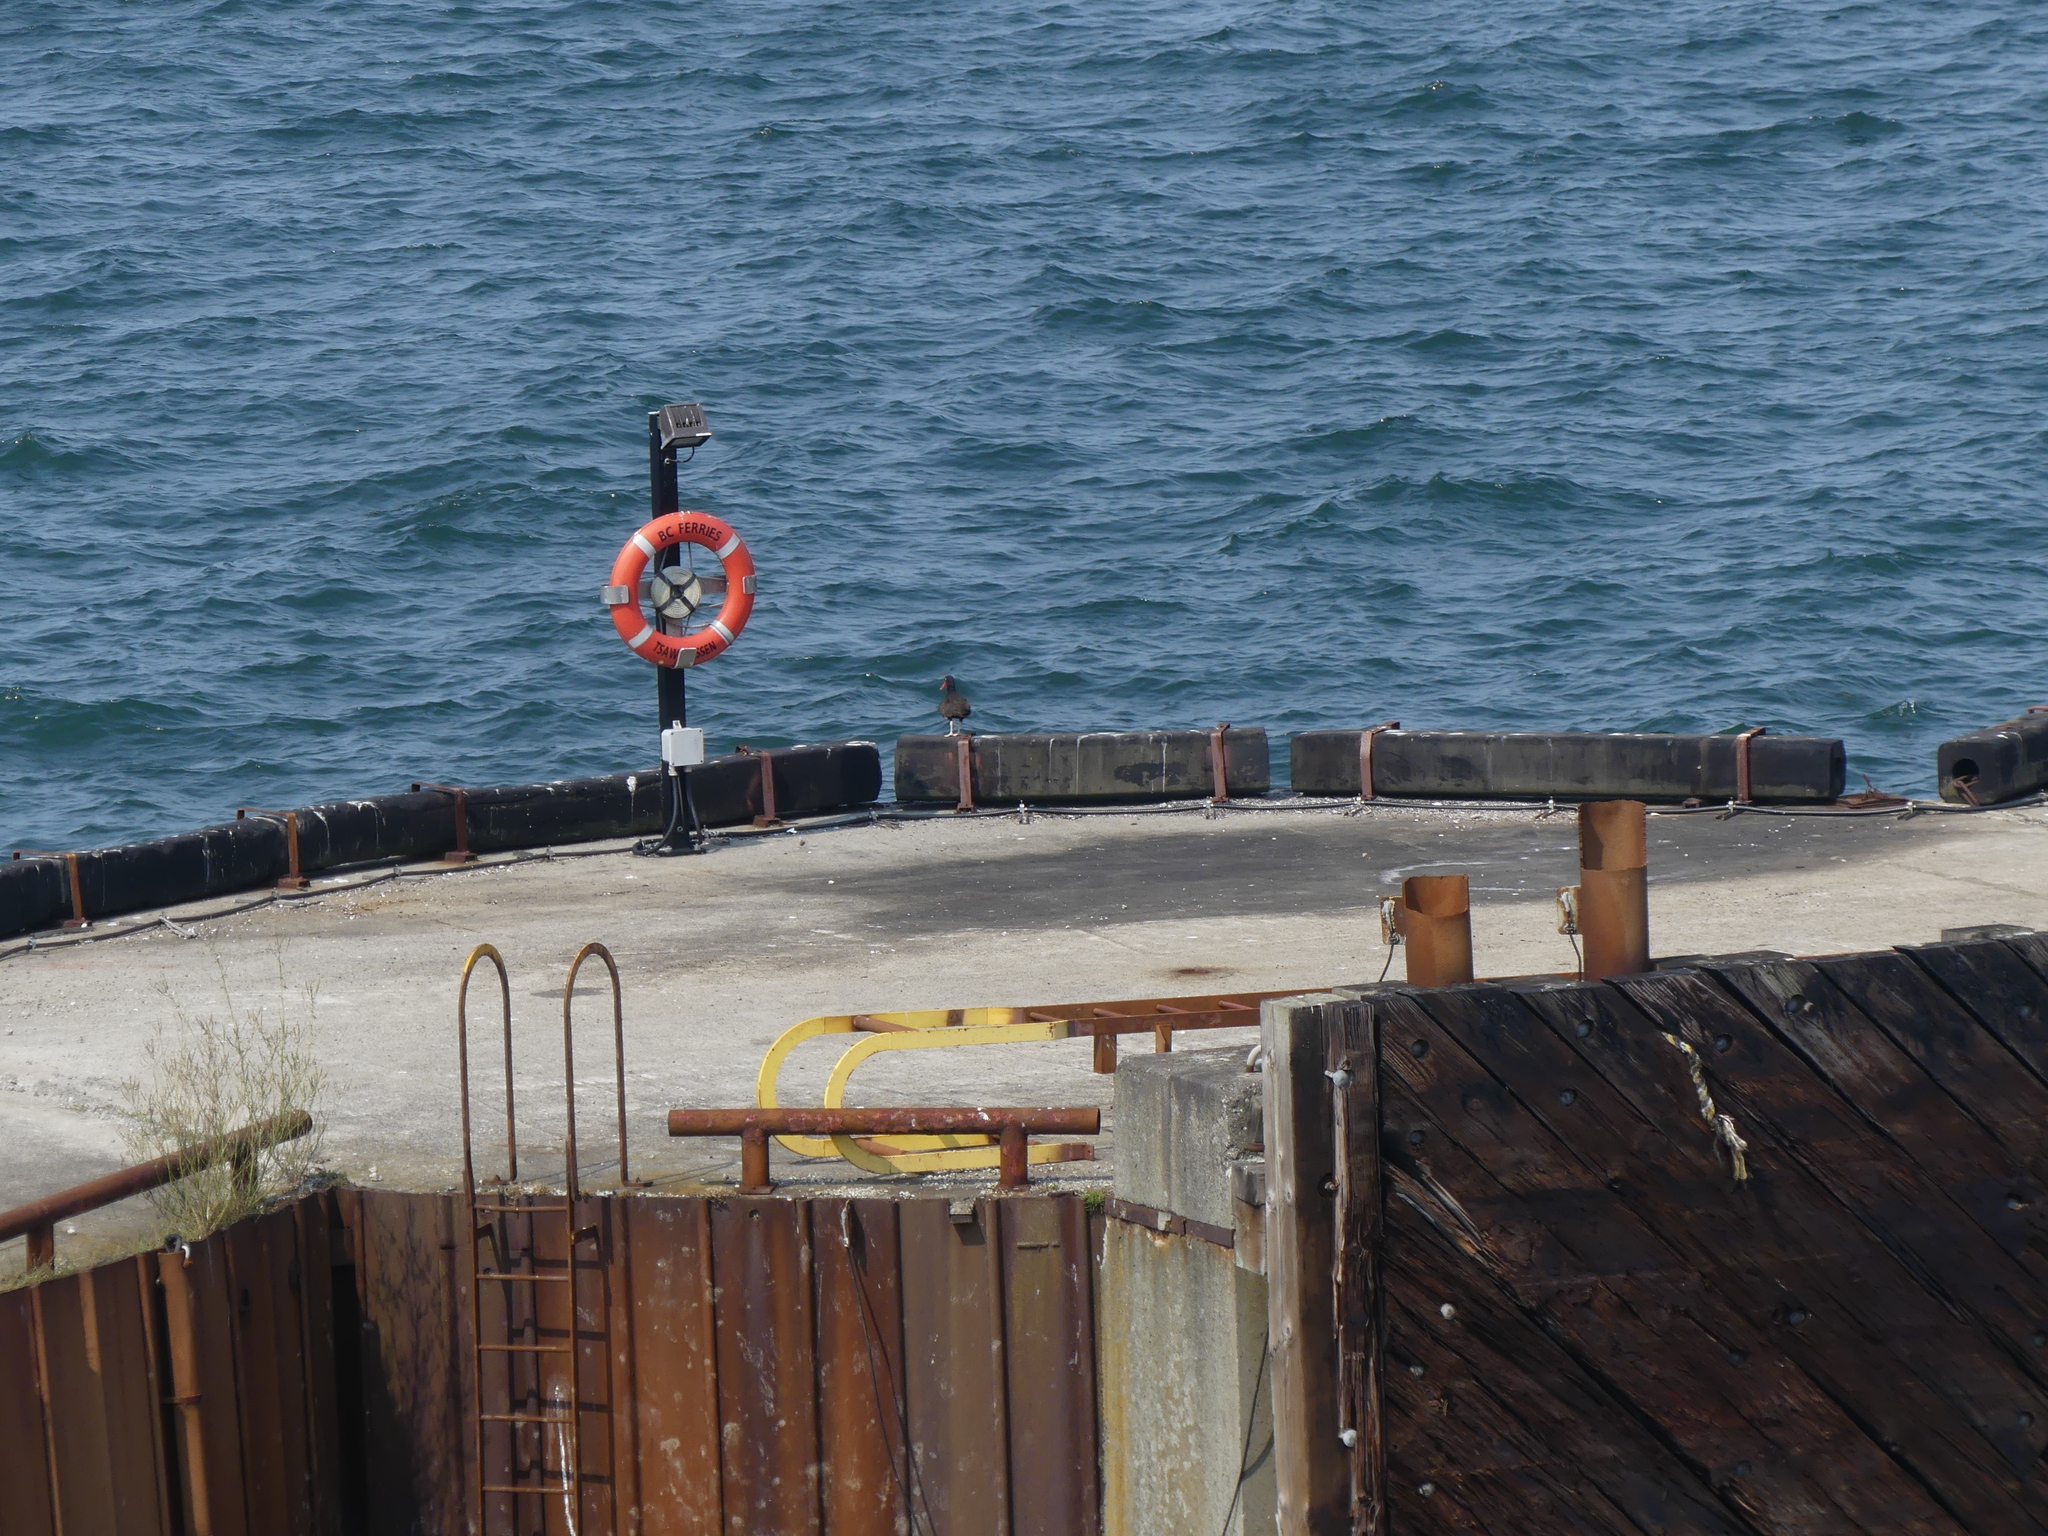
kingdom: Animalia
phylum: Chordata
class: Aves
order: Charadriiformes
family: Haematopodidae
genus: Haematopus
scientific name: Haematopus bachmani
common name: Black oystercatcher
